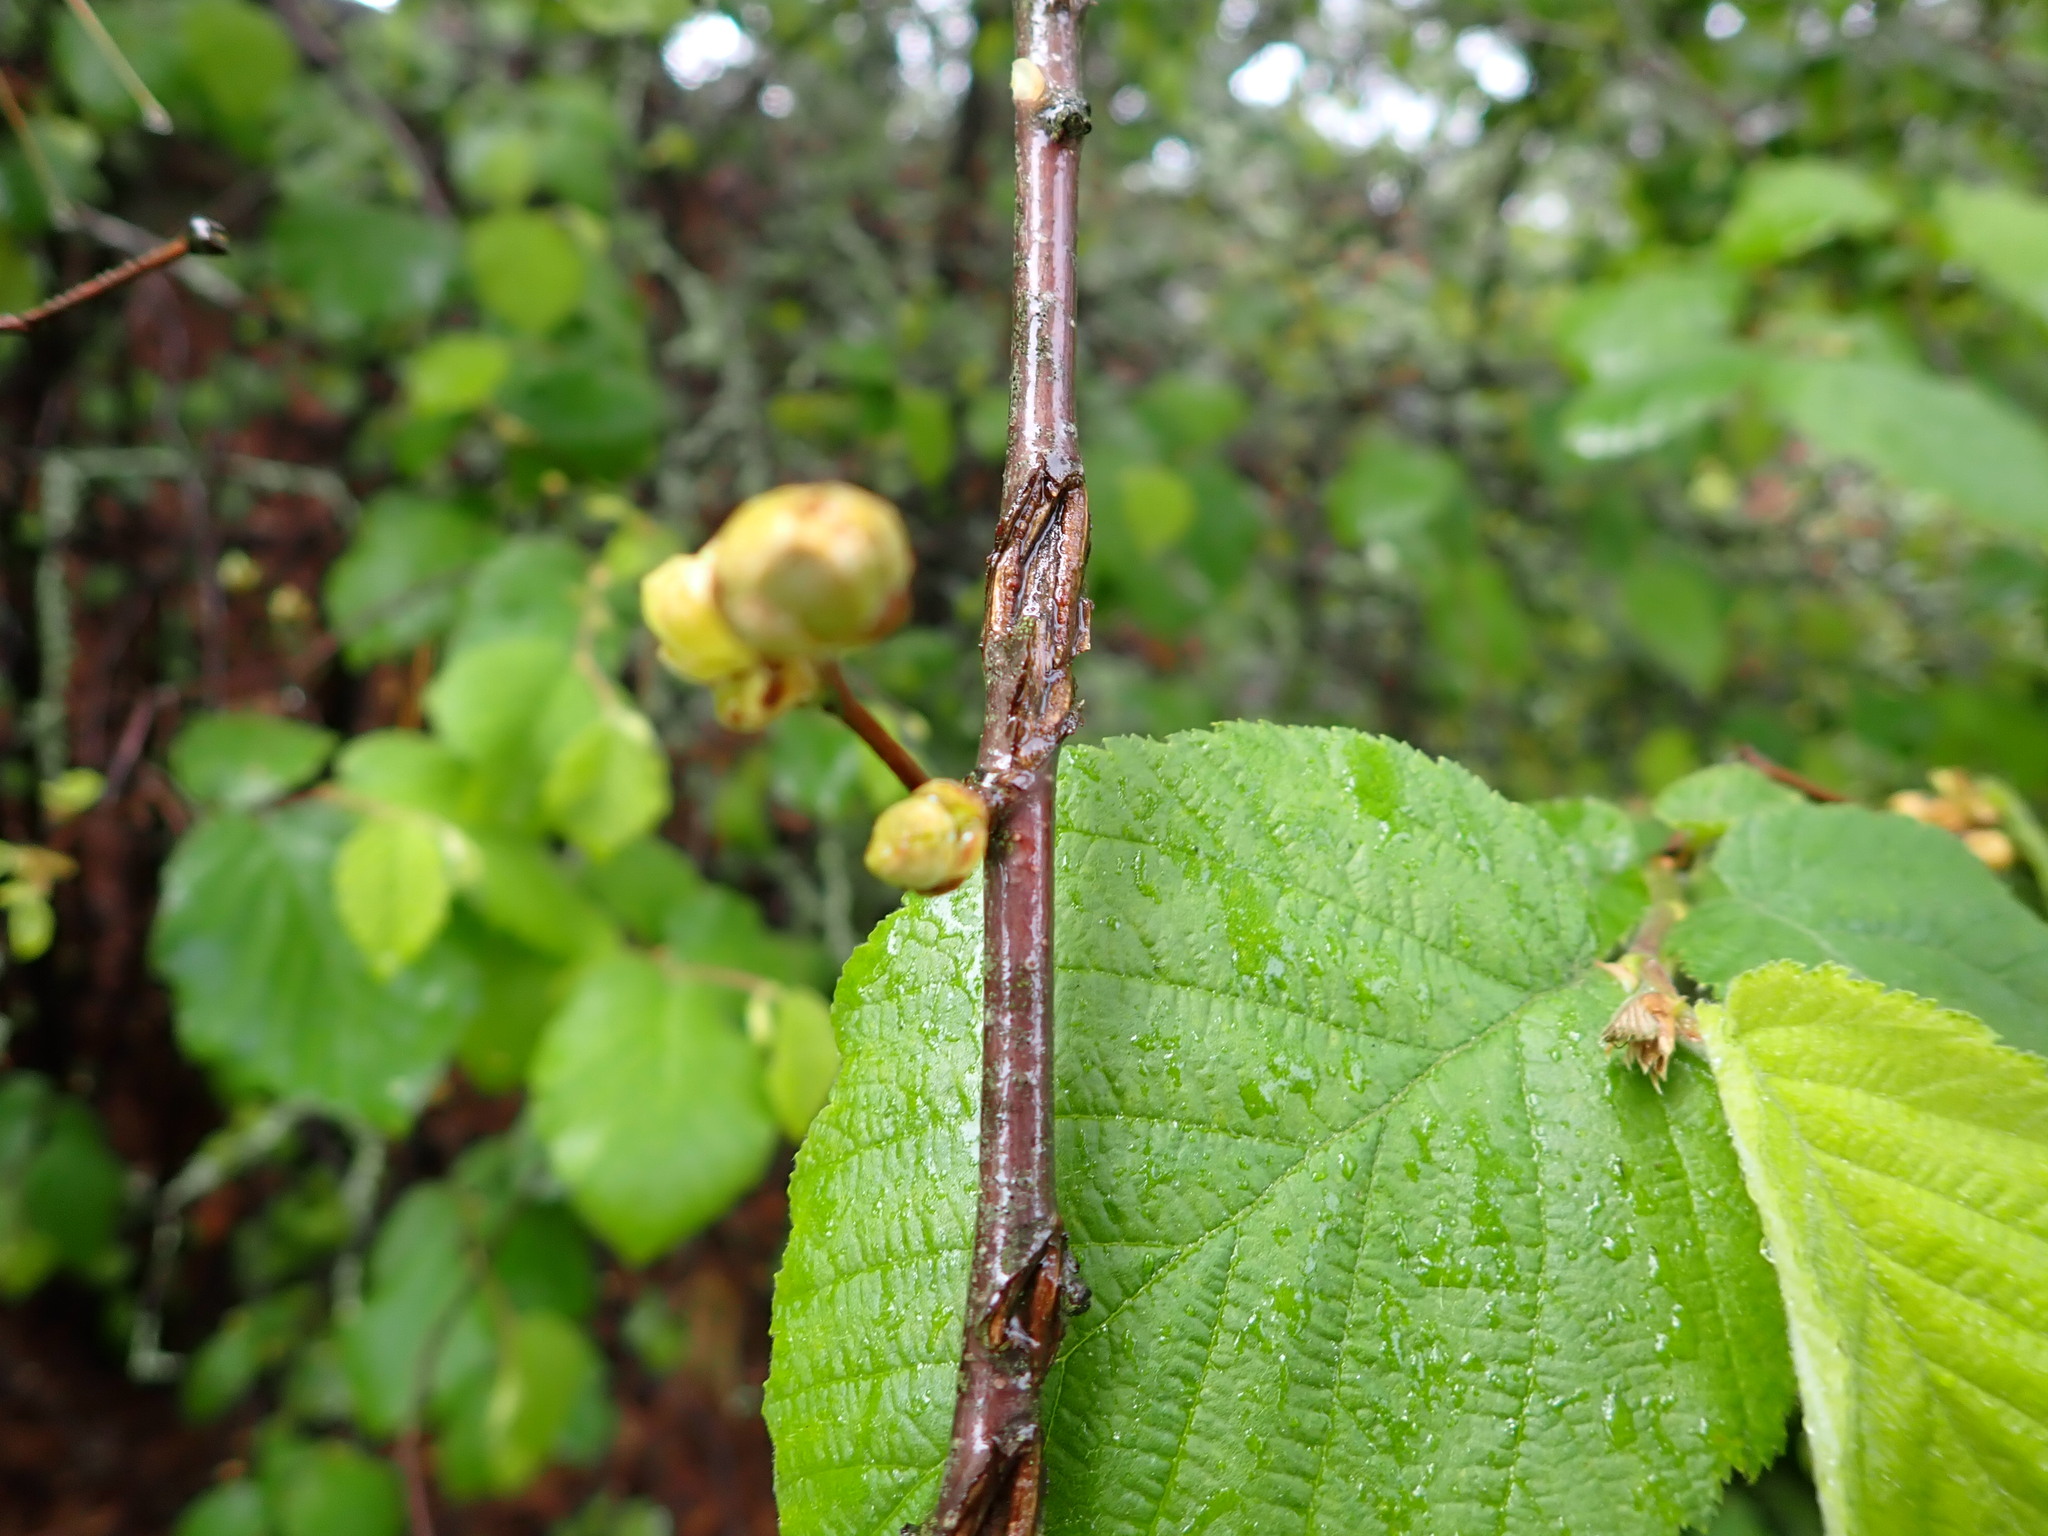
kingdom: Plantae
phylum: Tracheophyta
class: Magnoliopsida
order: Fagales
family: Betulaceae
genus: Corylus
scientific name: Corylus cornuta
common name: Beaked hazel
